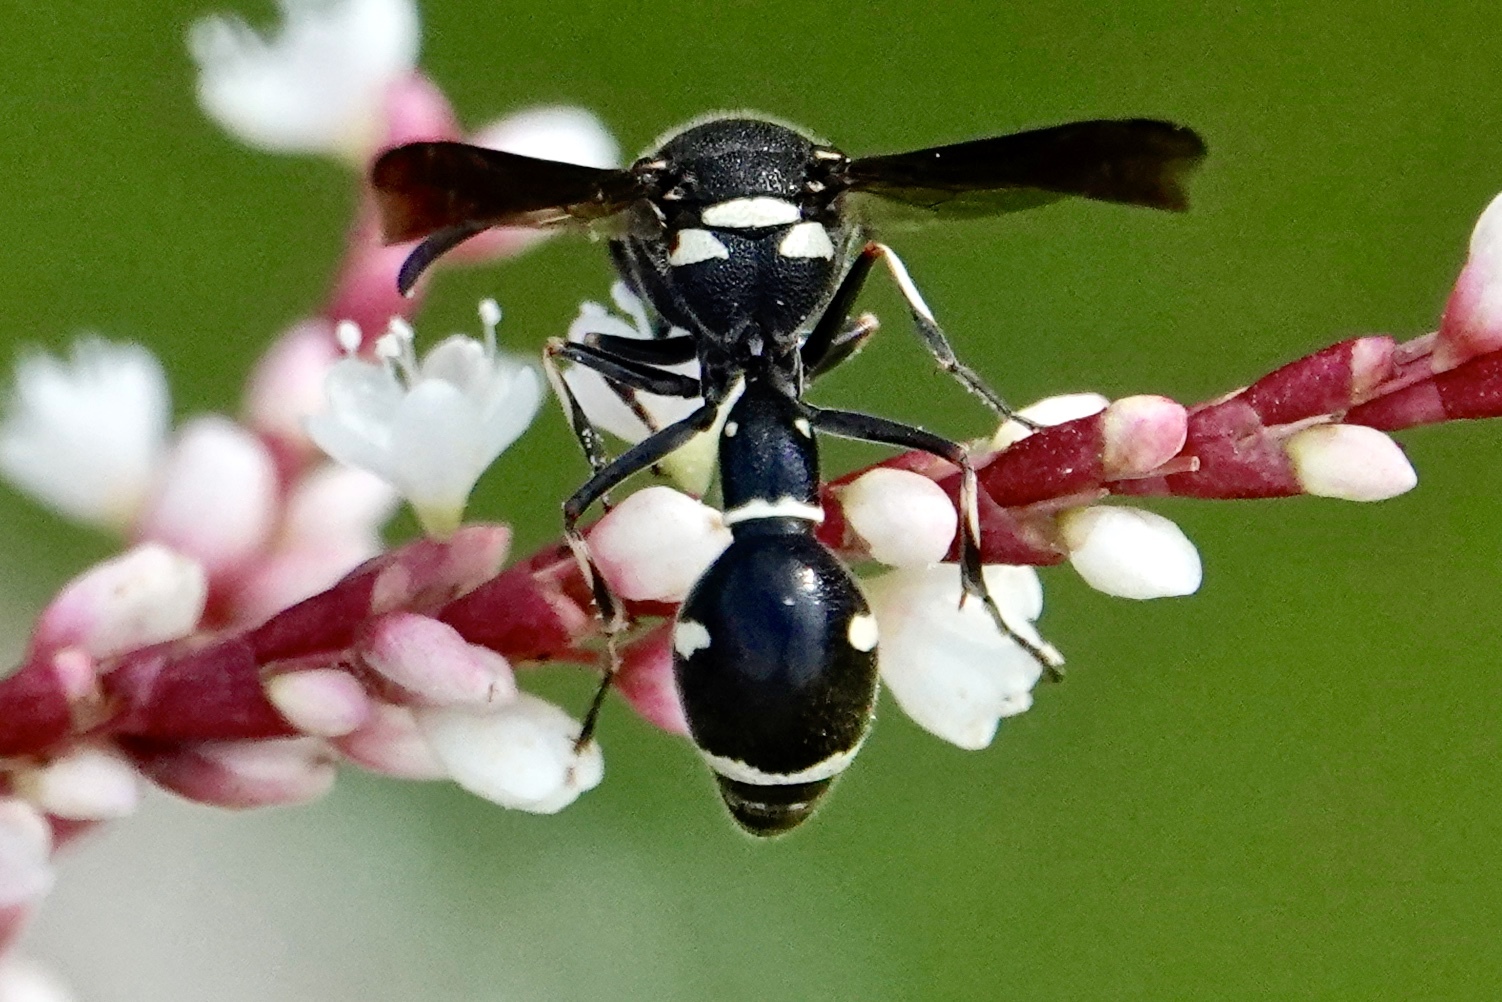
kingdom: Animalia
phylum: Arthropoda
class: Insecta
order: Hymenoptera
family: Vespidae
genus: Eumenes
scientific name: Eumenes fraternus
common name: Fraternal potter wasp
